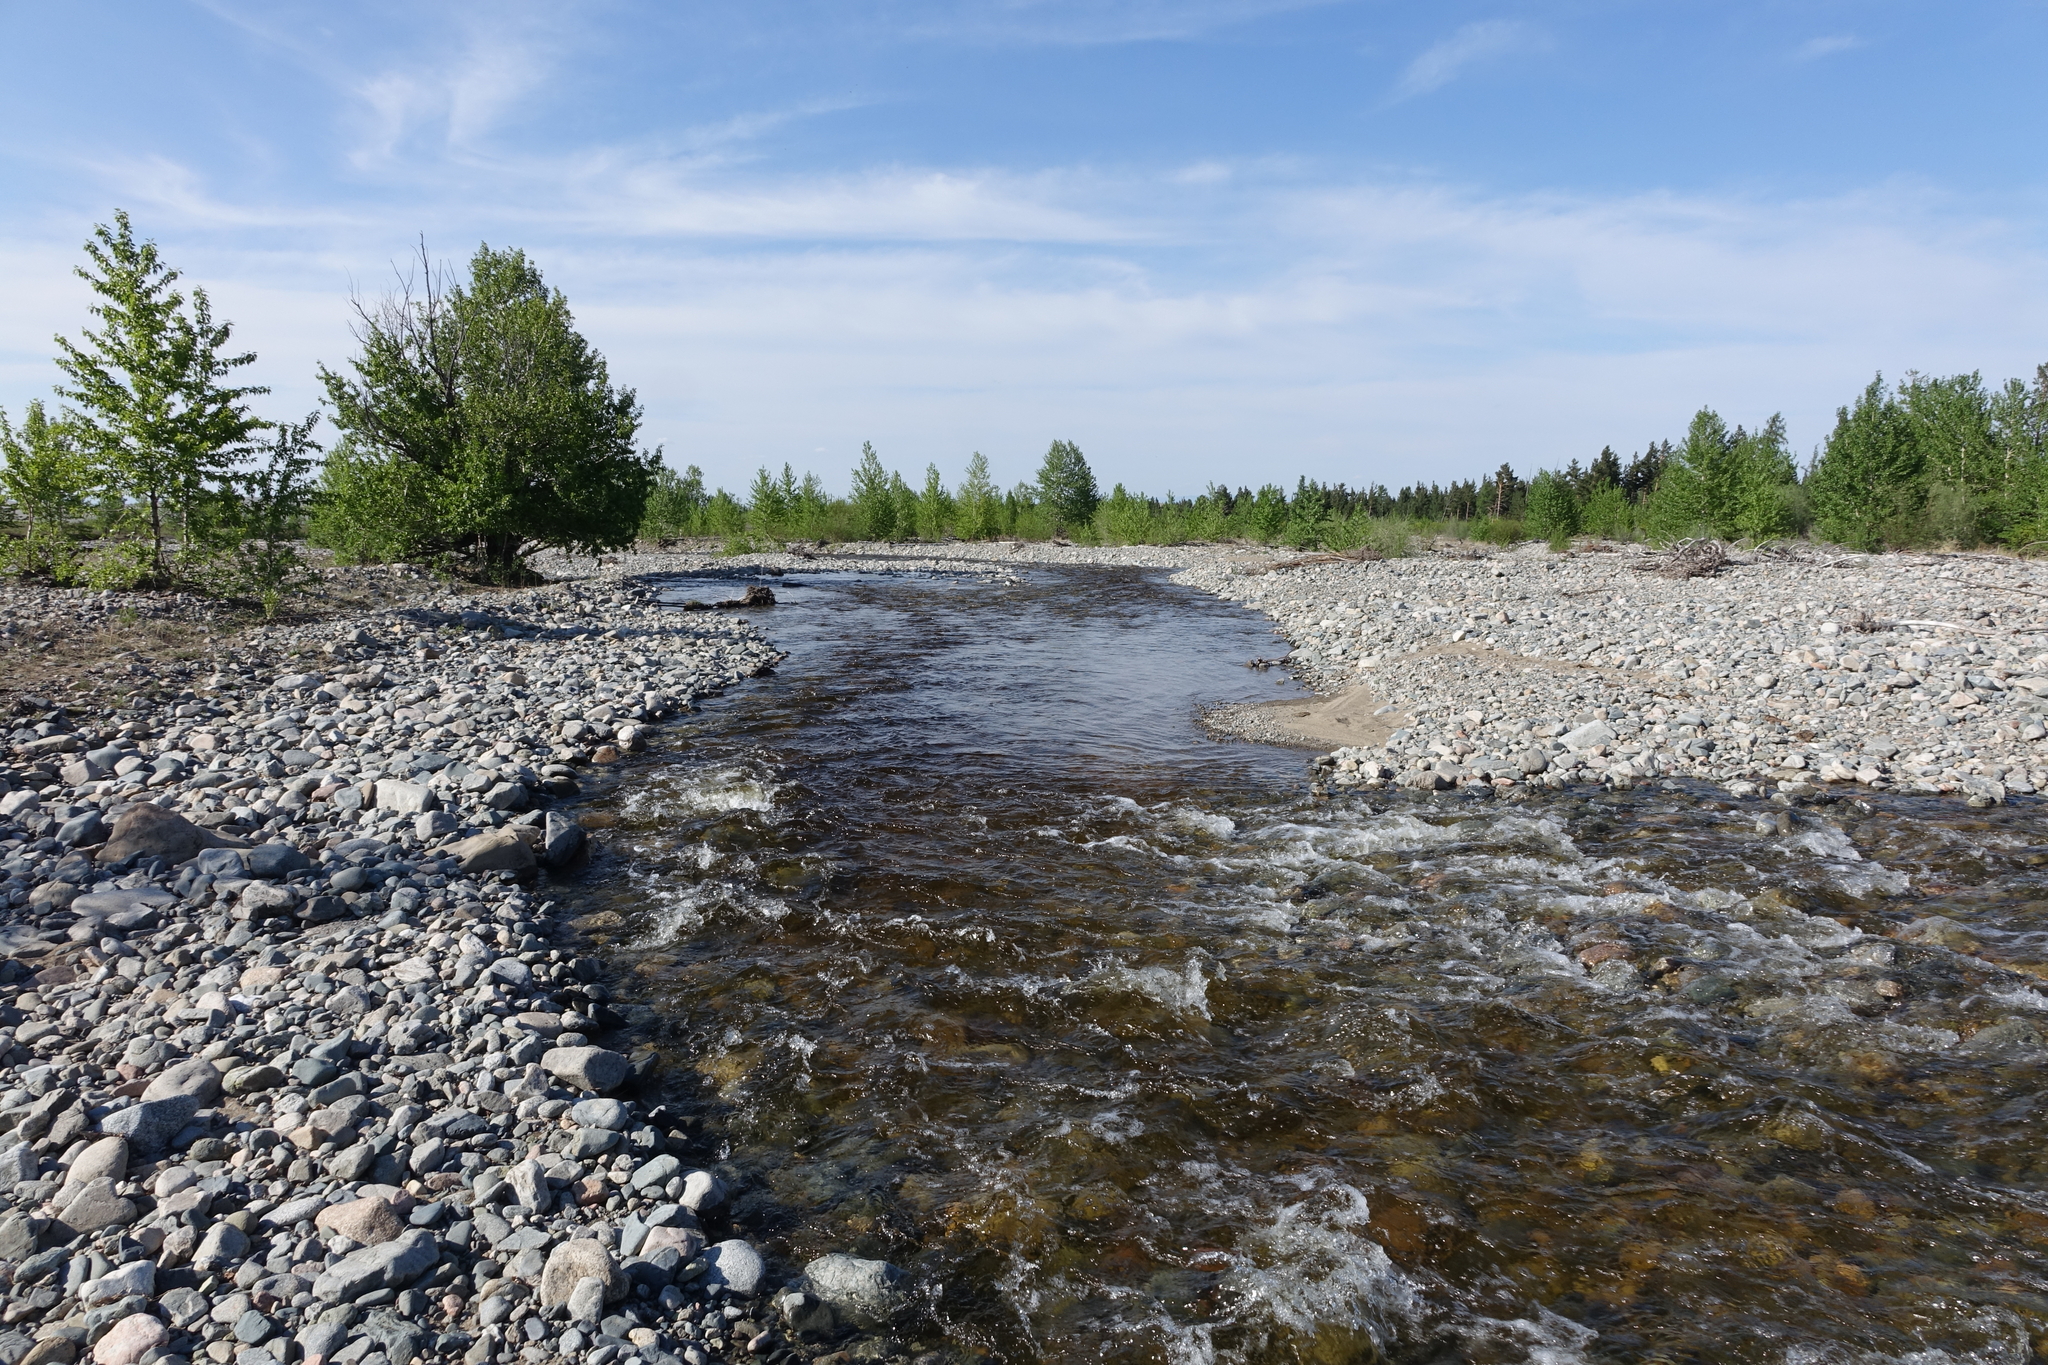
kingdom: Plantae
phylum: Tracheophyta
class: Magnoliopsida
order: Malpighiales
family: Salicaceae
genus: Populus
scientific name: Populus laurifolia
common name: Laurel-leaf poplar
